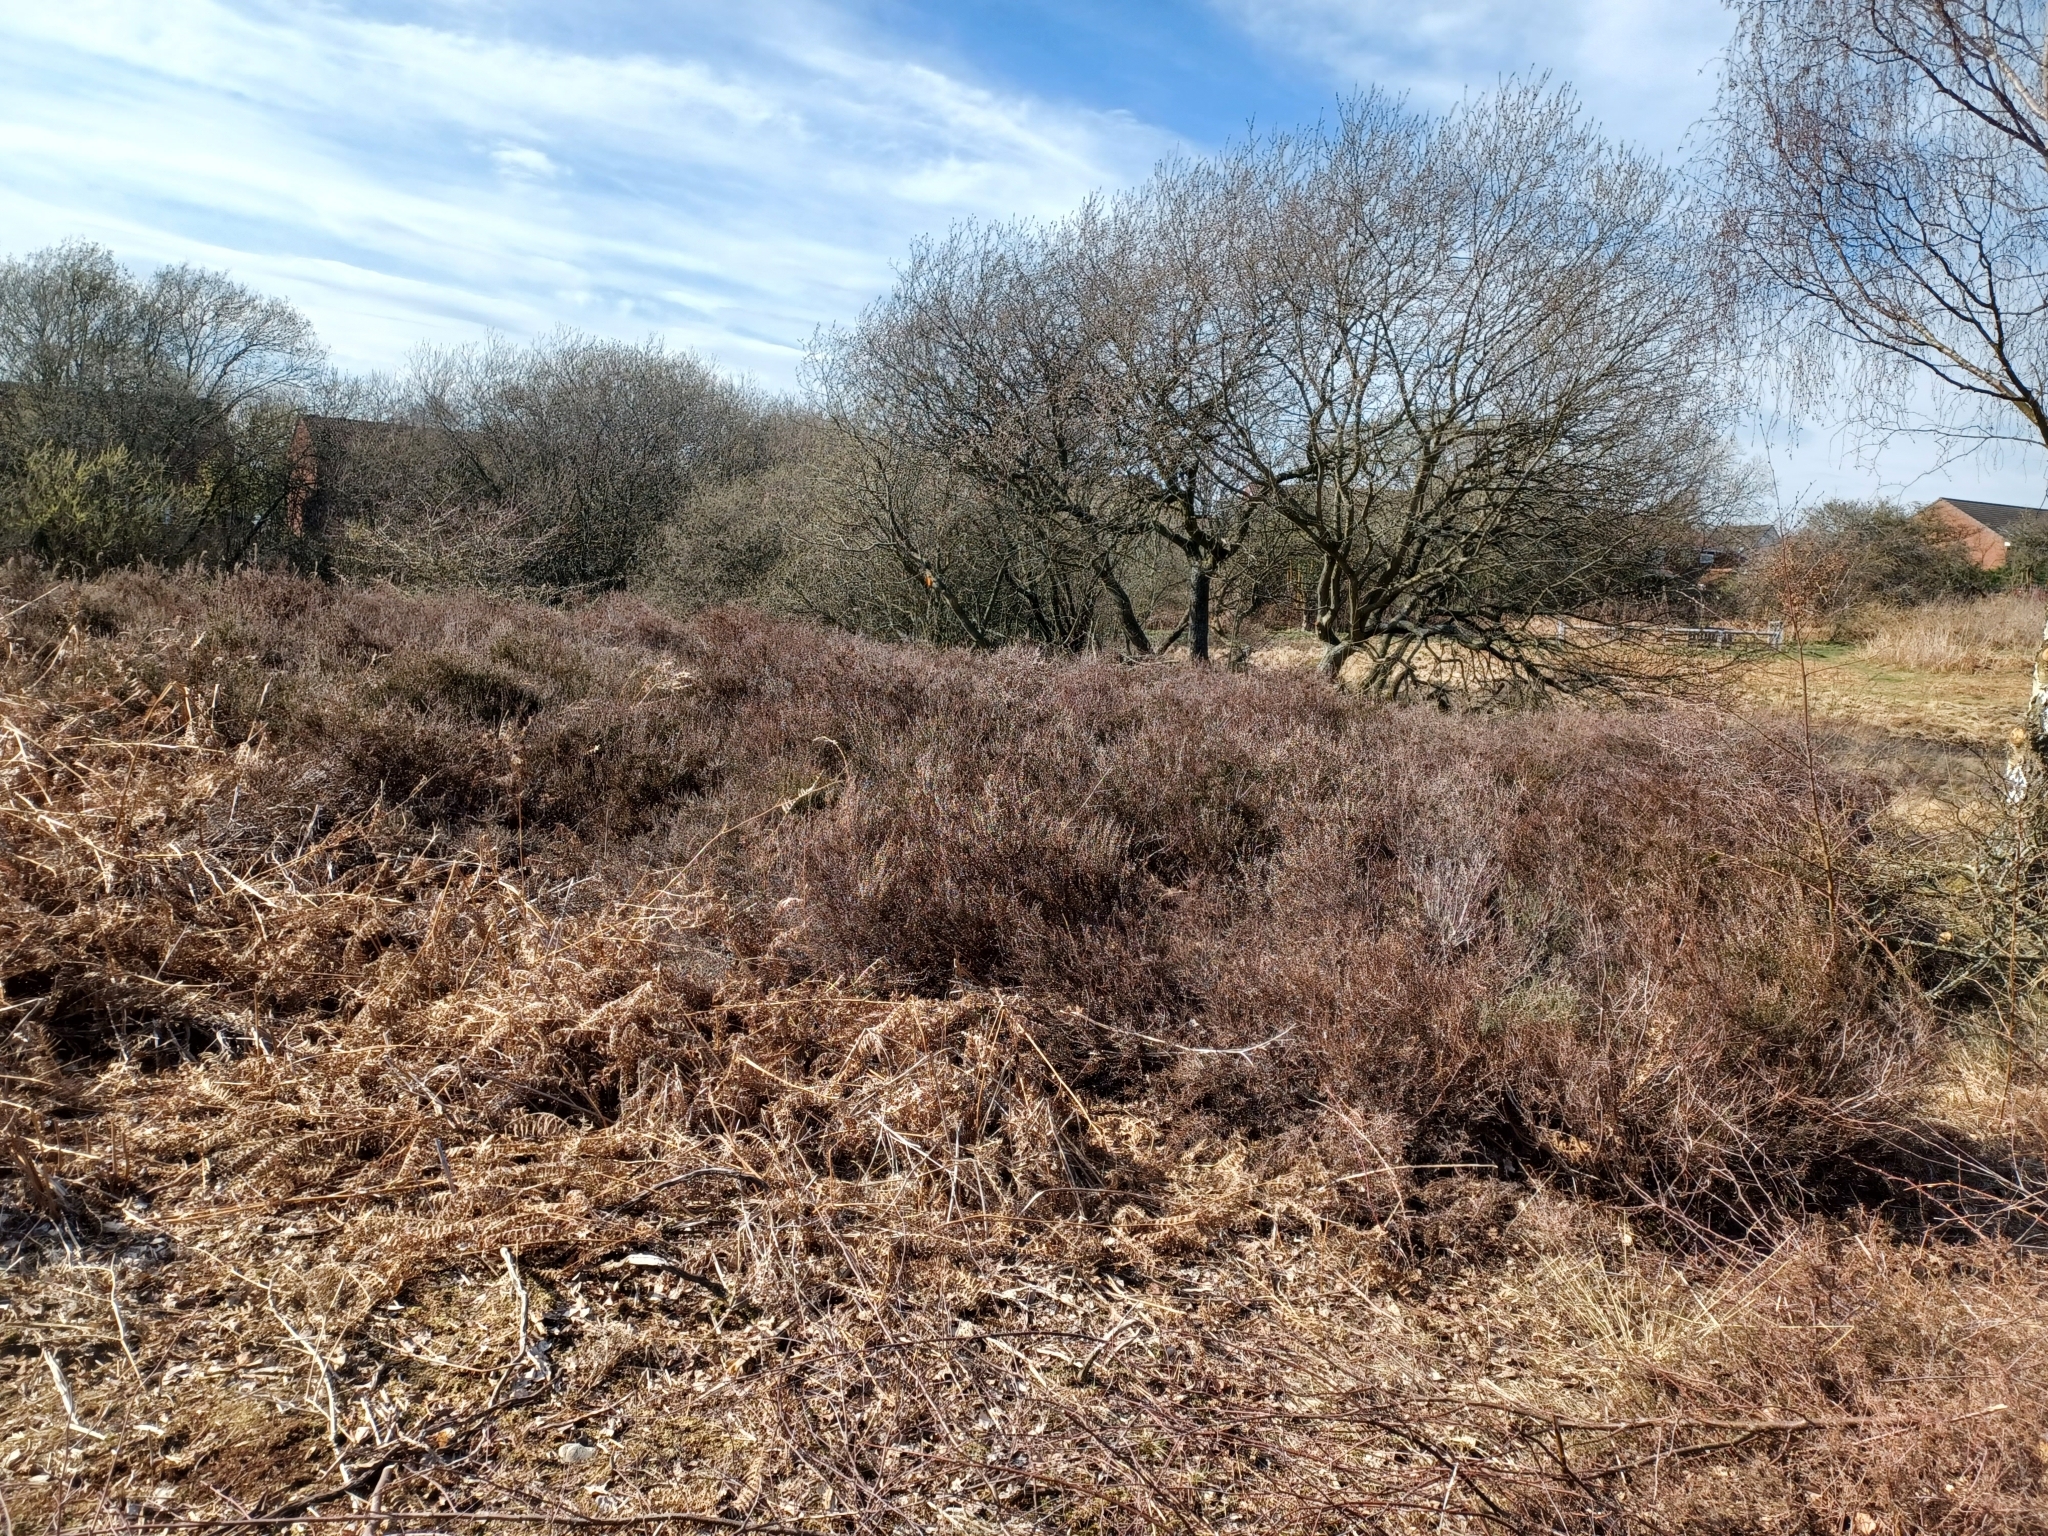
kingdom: Plantae
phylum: Tracheophyta
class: Magnoliopsida
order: Ericales
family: Ericaceae
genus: Calluna
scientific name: Calluna vulgaris
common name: Heather
